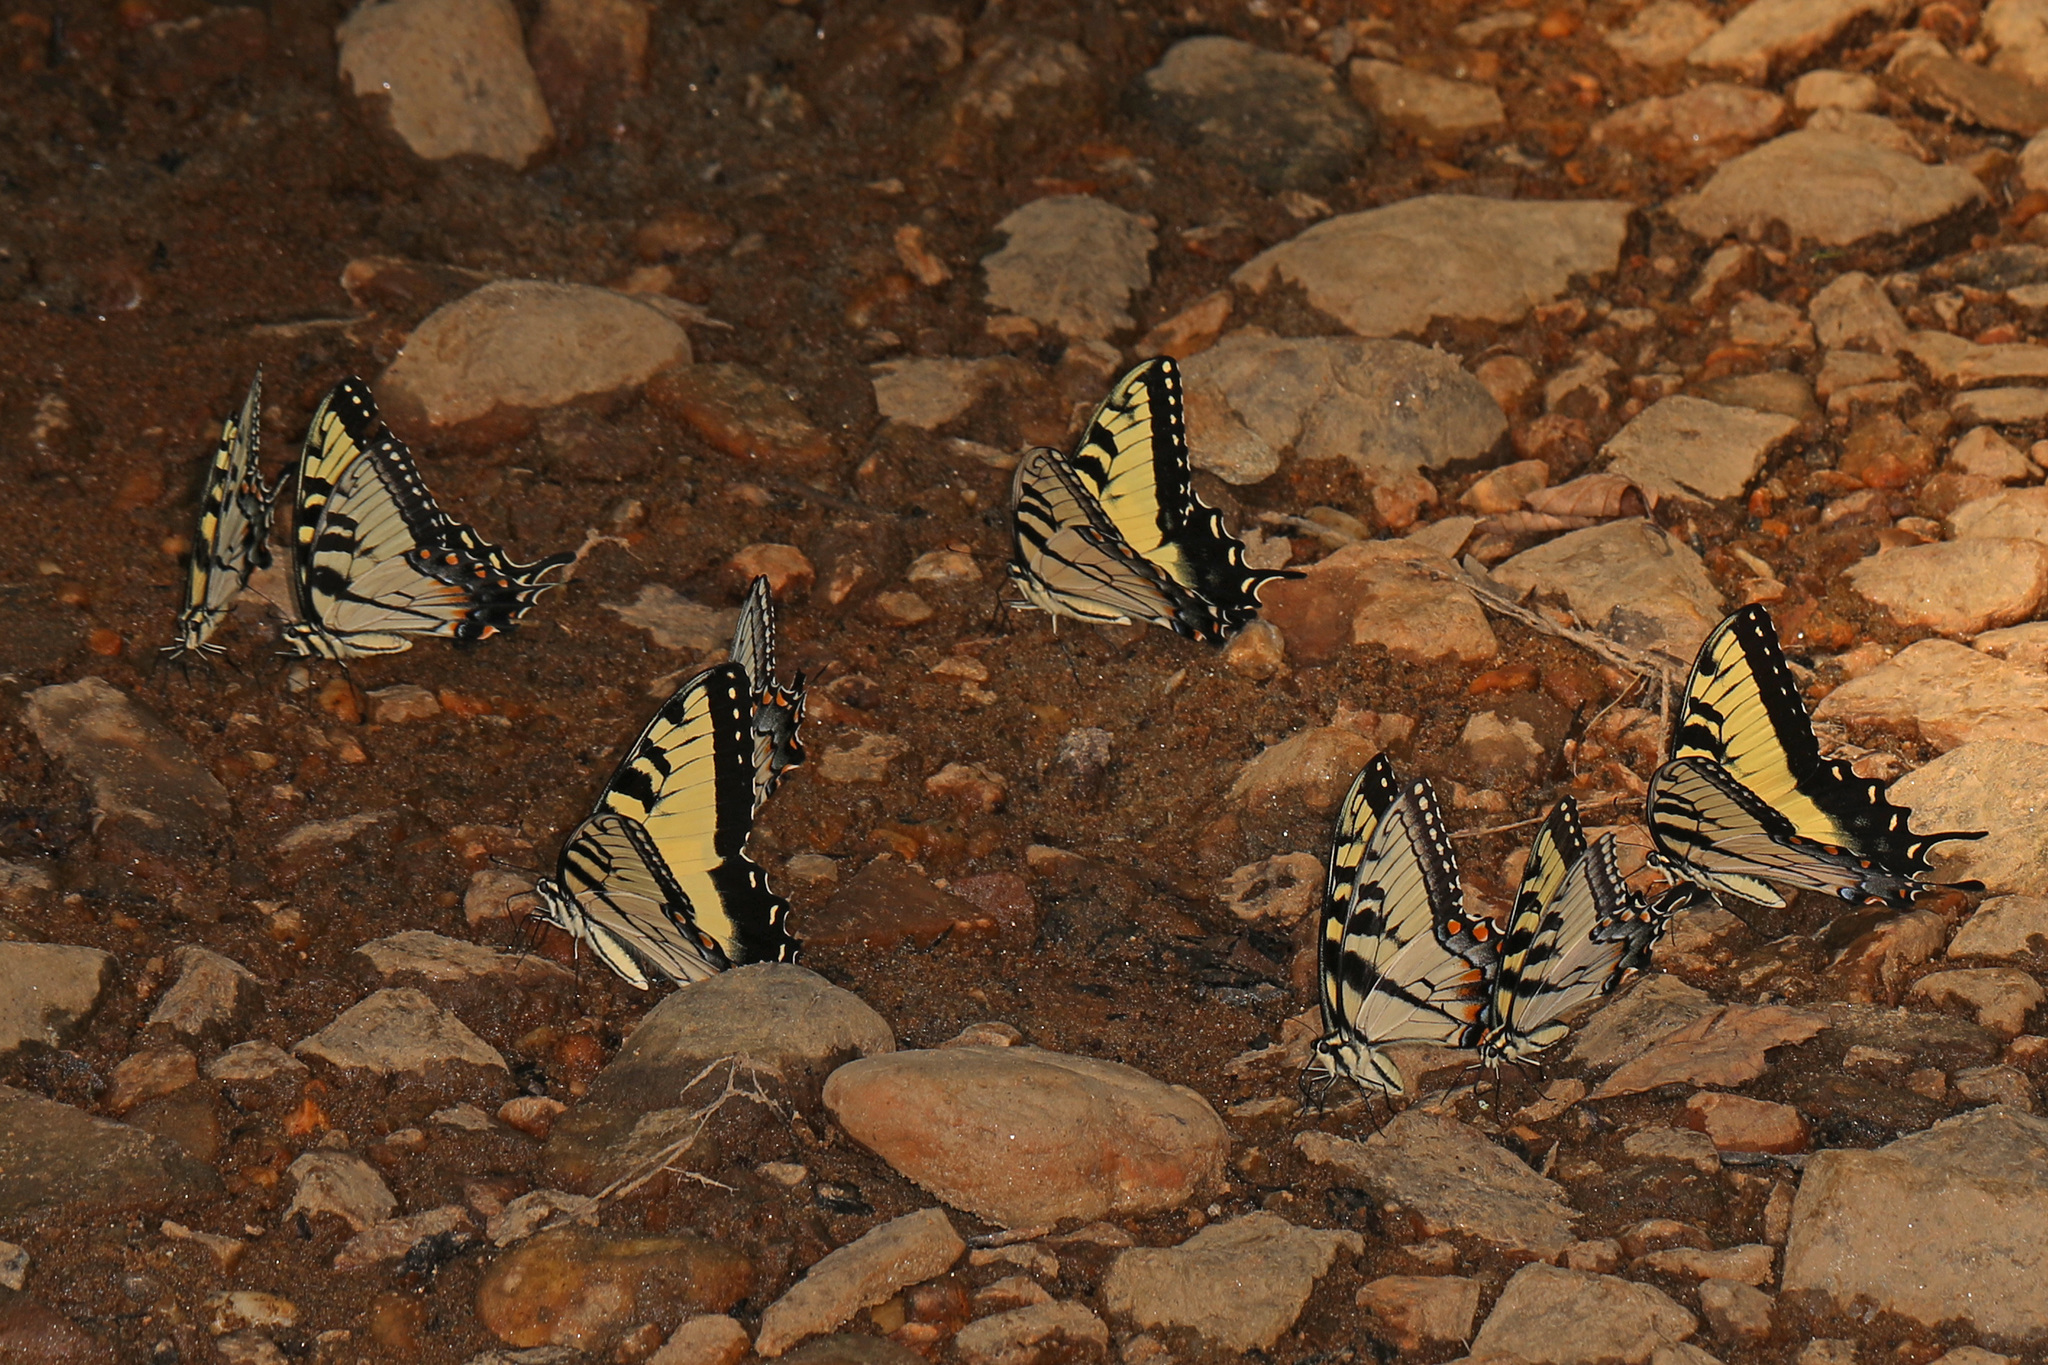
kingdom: Animalia
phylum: Arthropoda
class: Insecta
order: Lepidoptera
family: Papilionidae
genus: Papilio
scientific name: Papilio glaucus
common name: Tiger swallowtail
